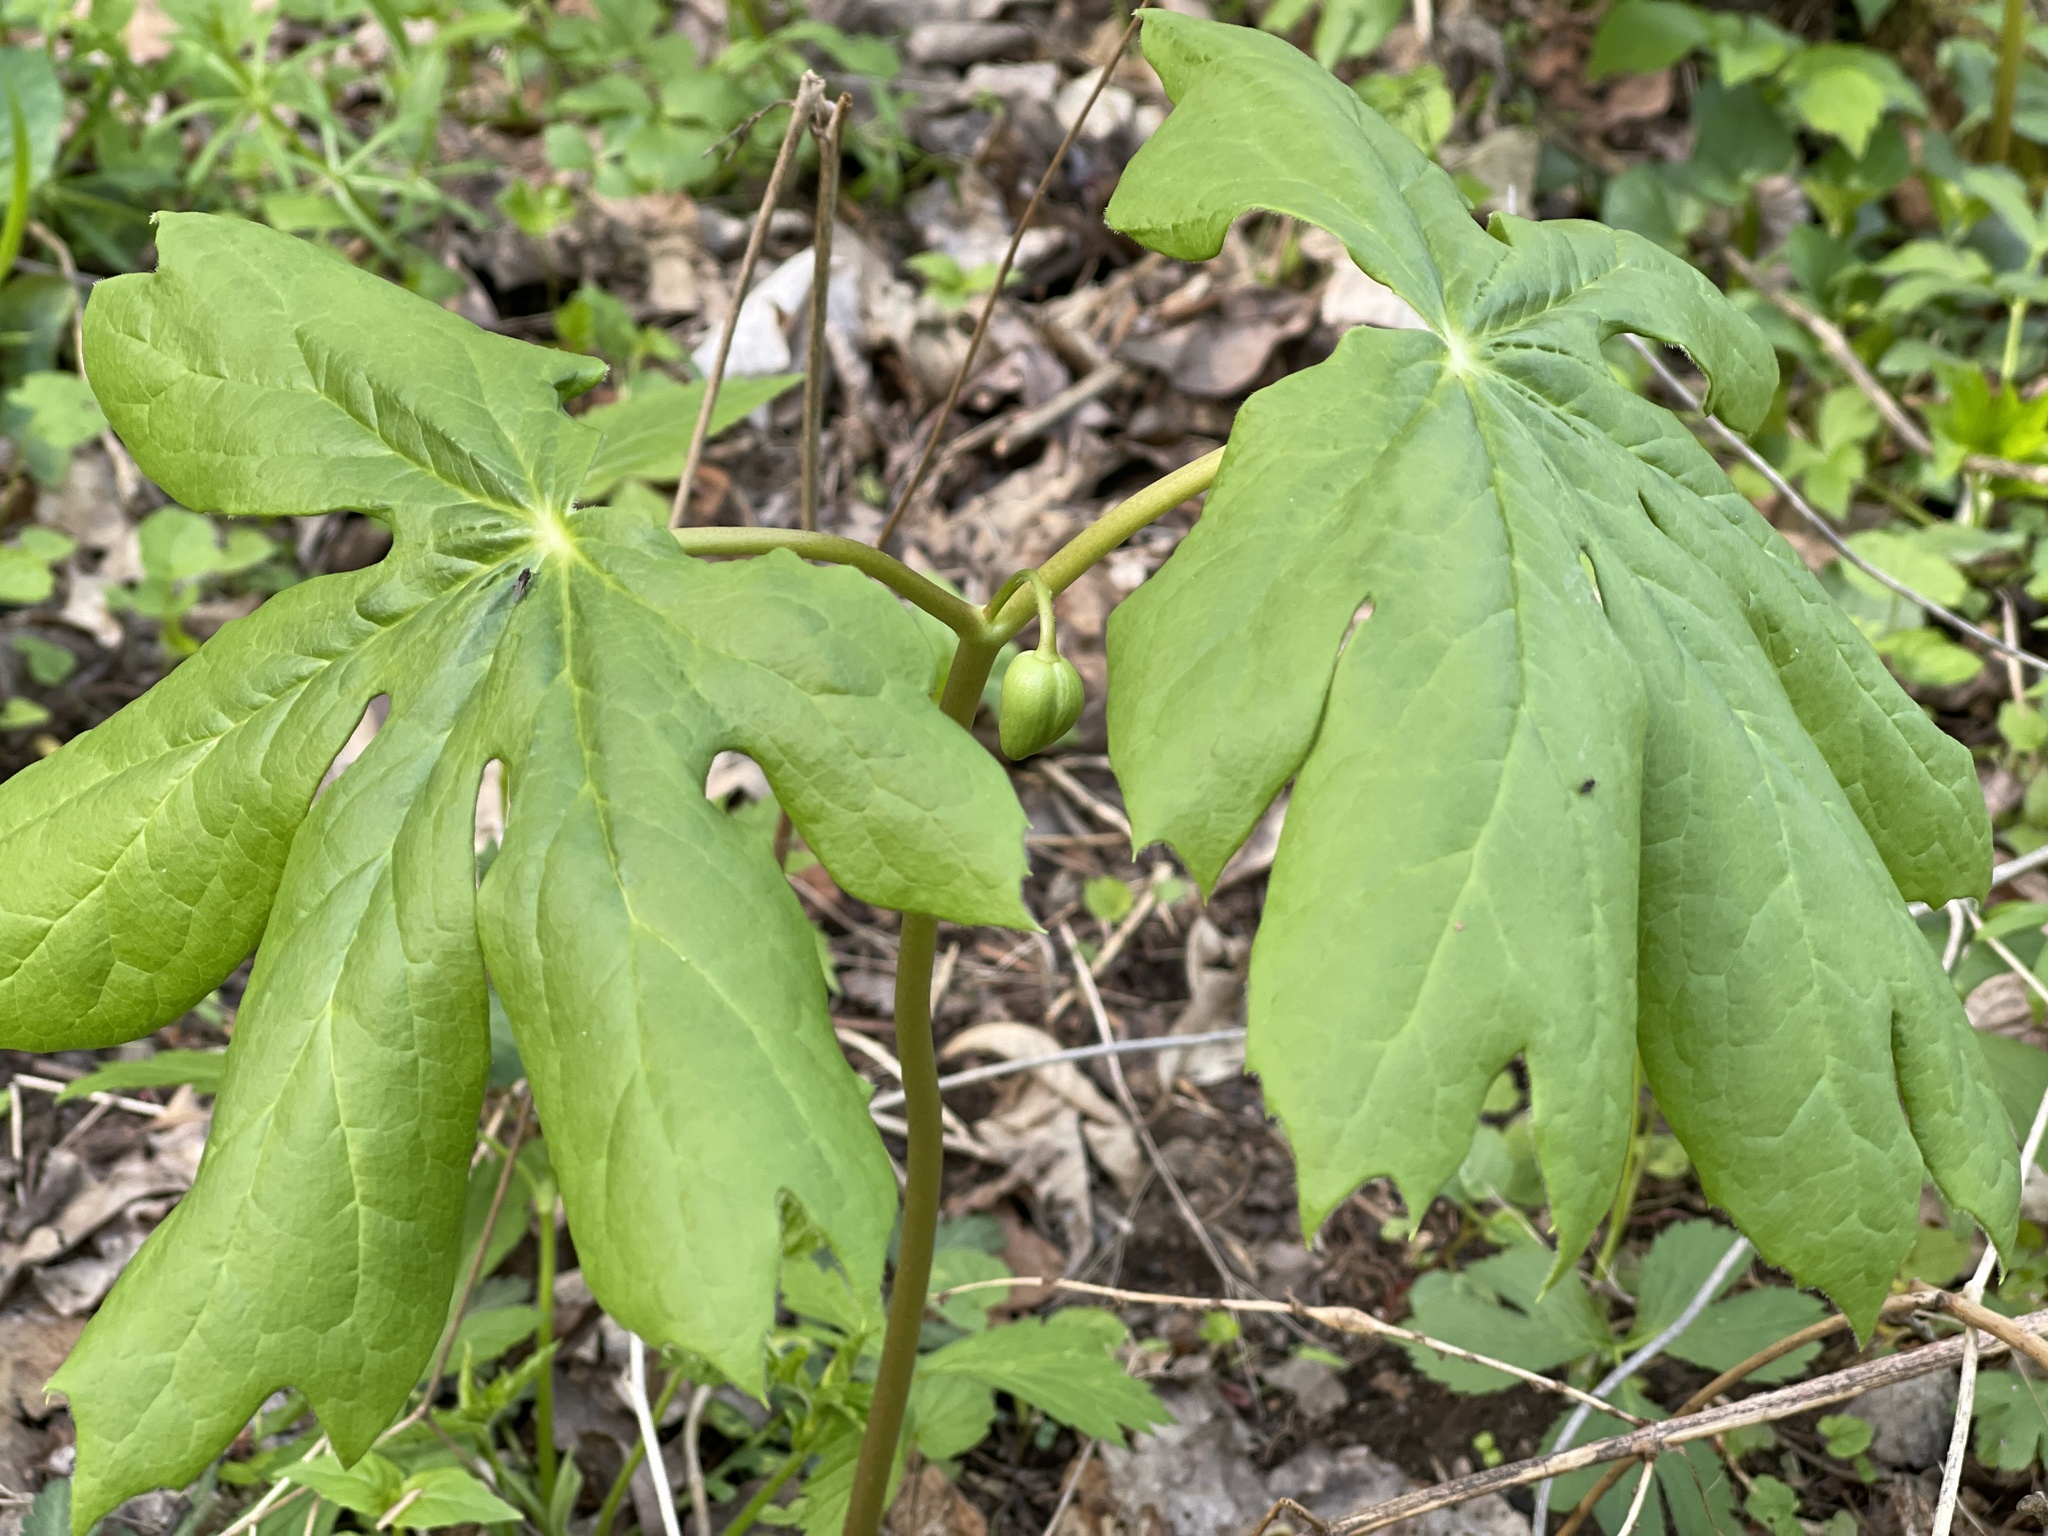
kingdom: Plantae
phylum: Tracheophyta
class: Magnoliopsida
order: Ranunculales
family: Berberidaceae
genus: Podophyllum
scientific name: Podophyllum peltatum
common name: Wild mandrake
